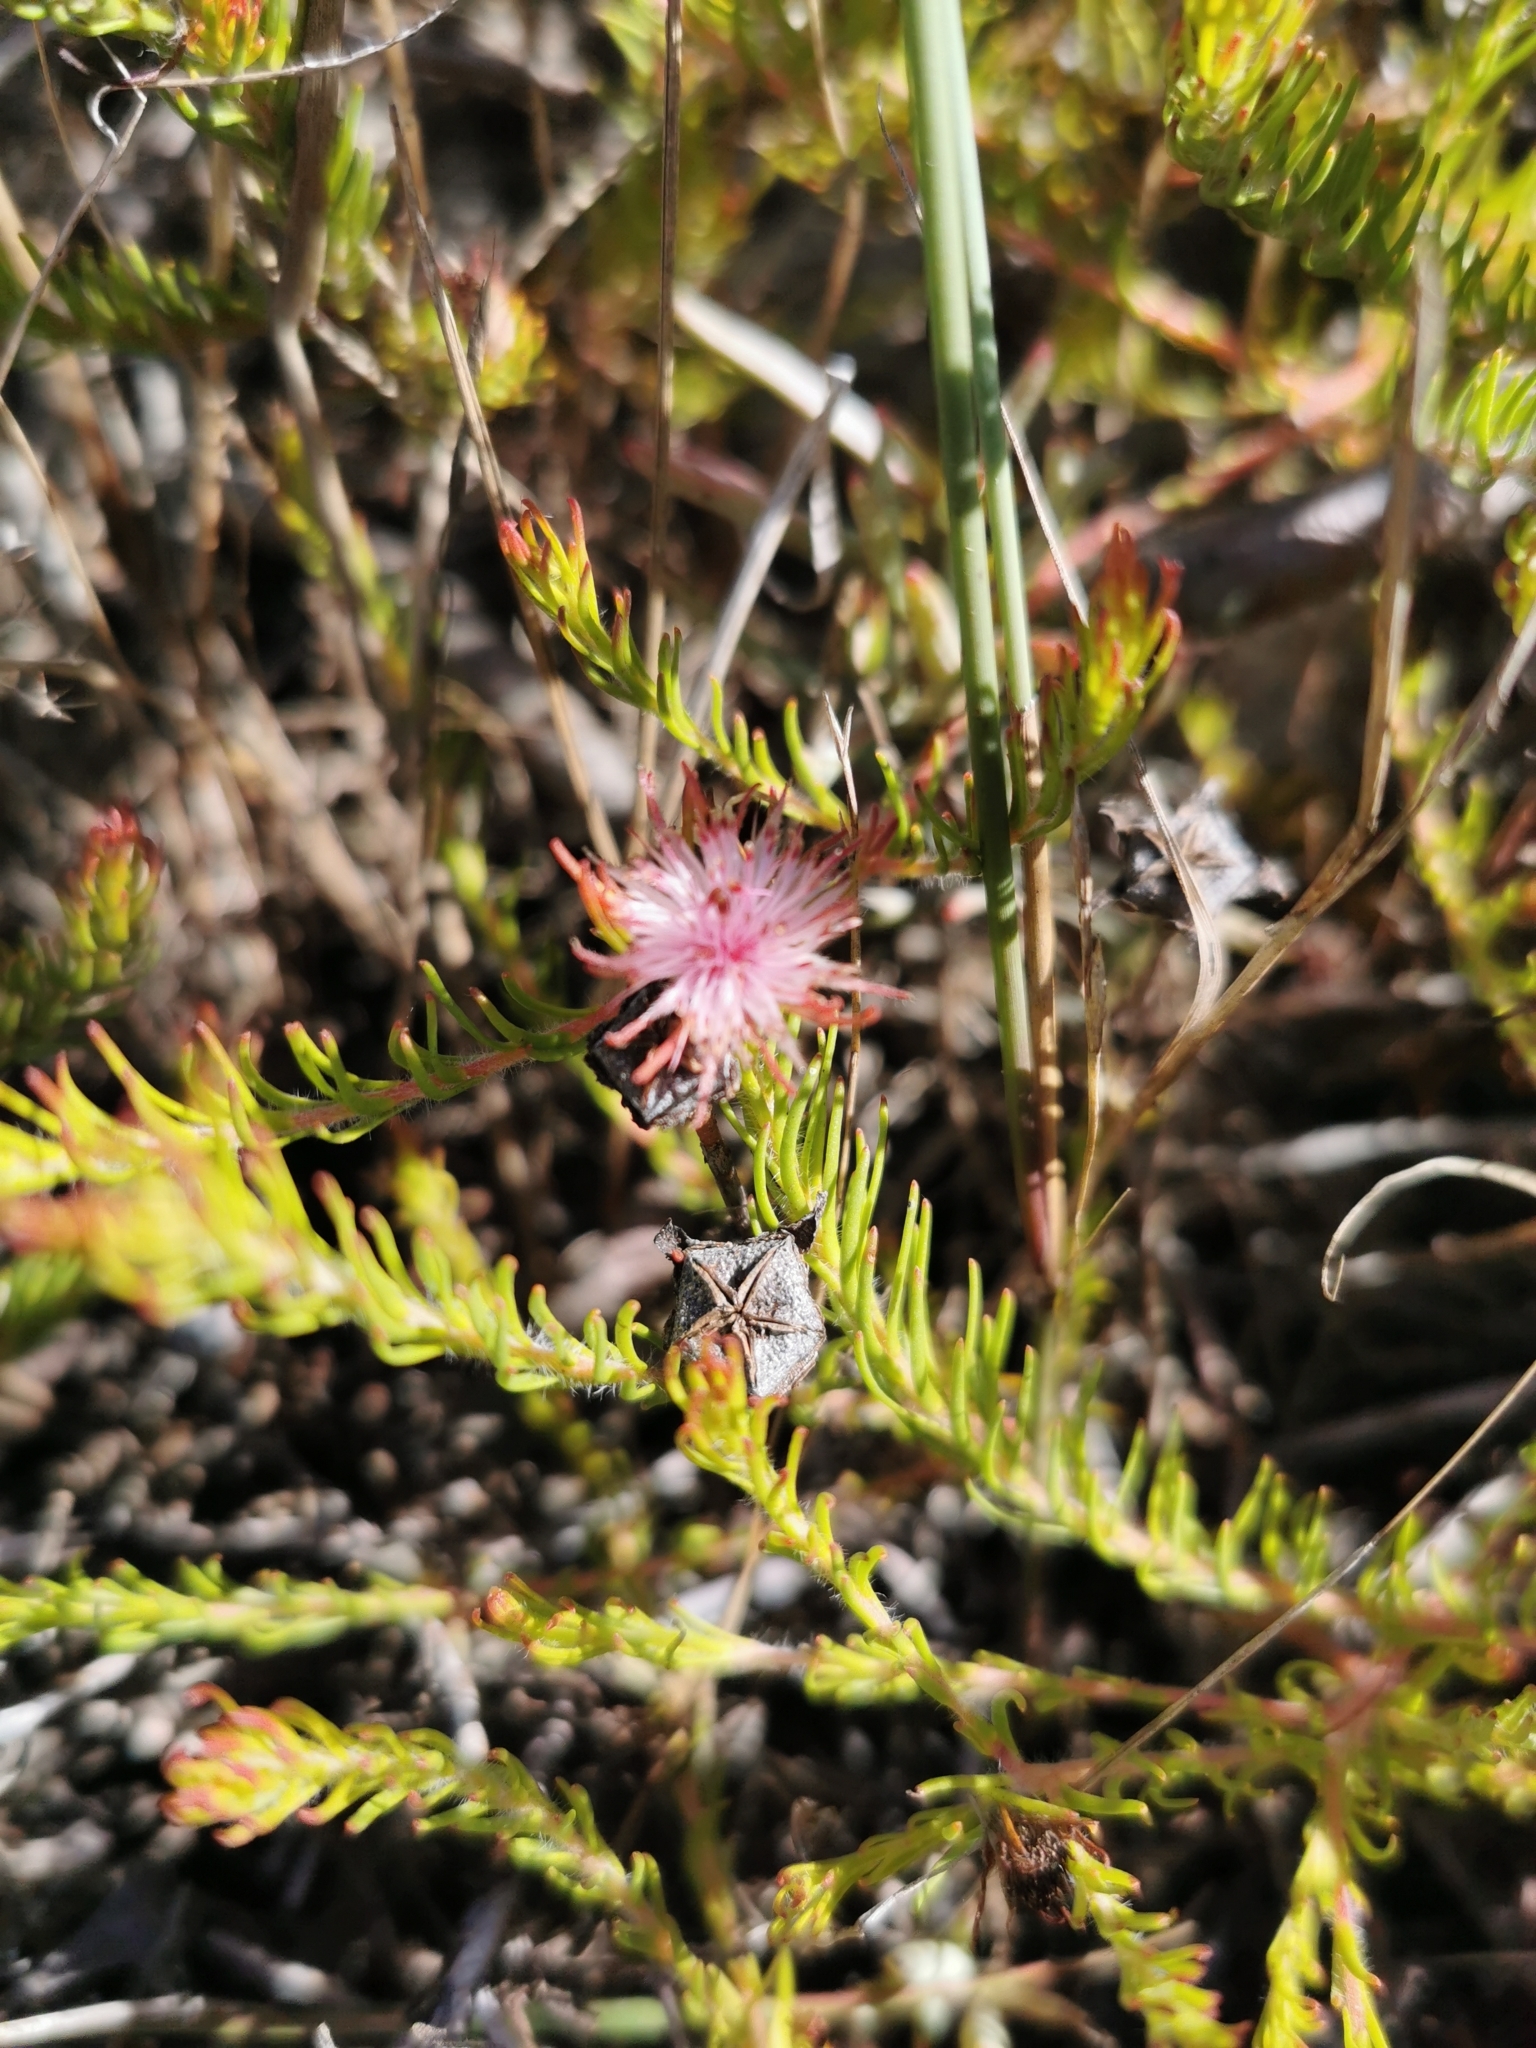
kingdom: Plantae
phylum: Tracheophyta
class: Magnoliopsida
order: Proteales
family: Proteaceae
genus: Diastella
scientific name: Diastella proteoides
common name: Flats silkypuff
